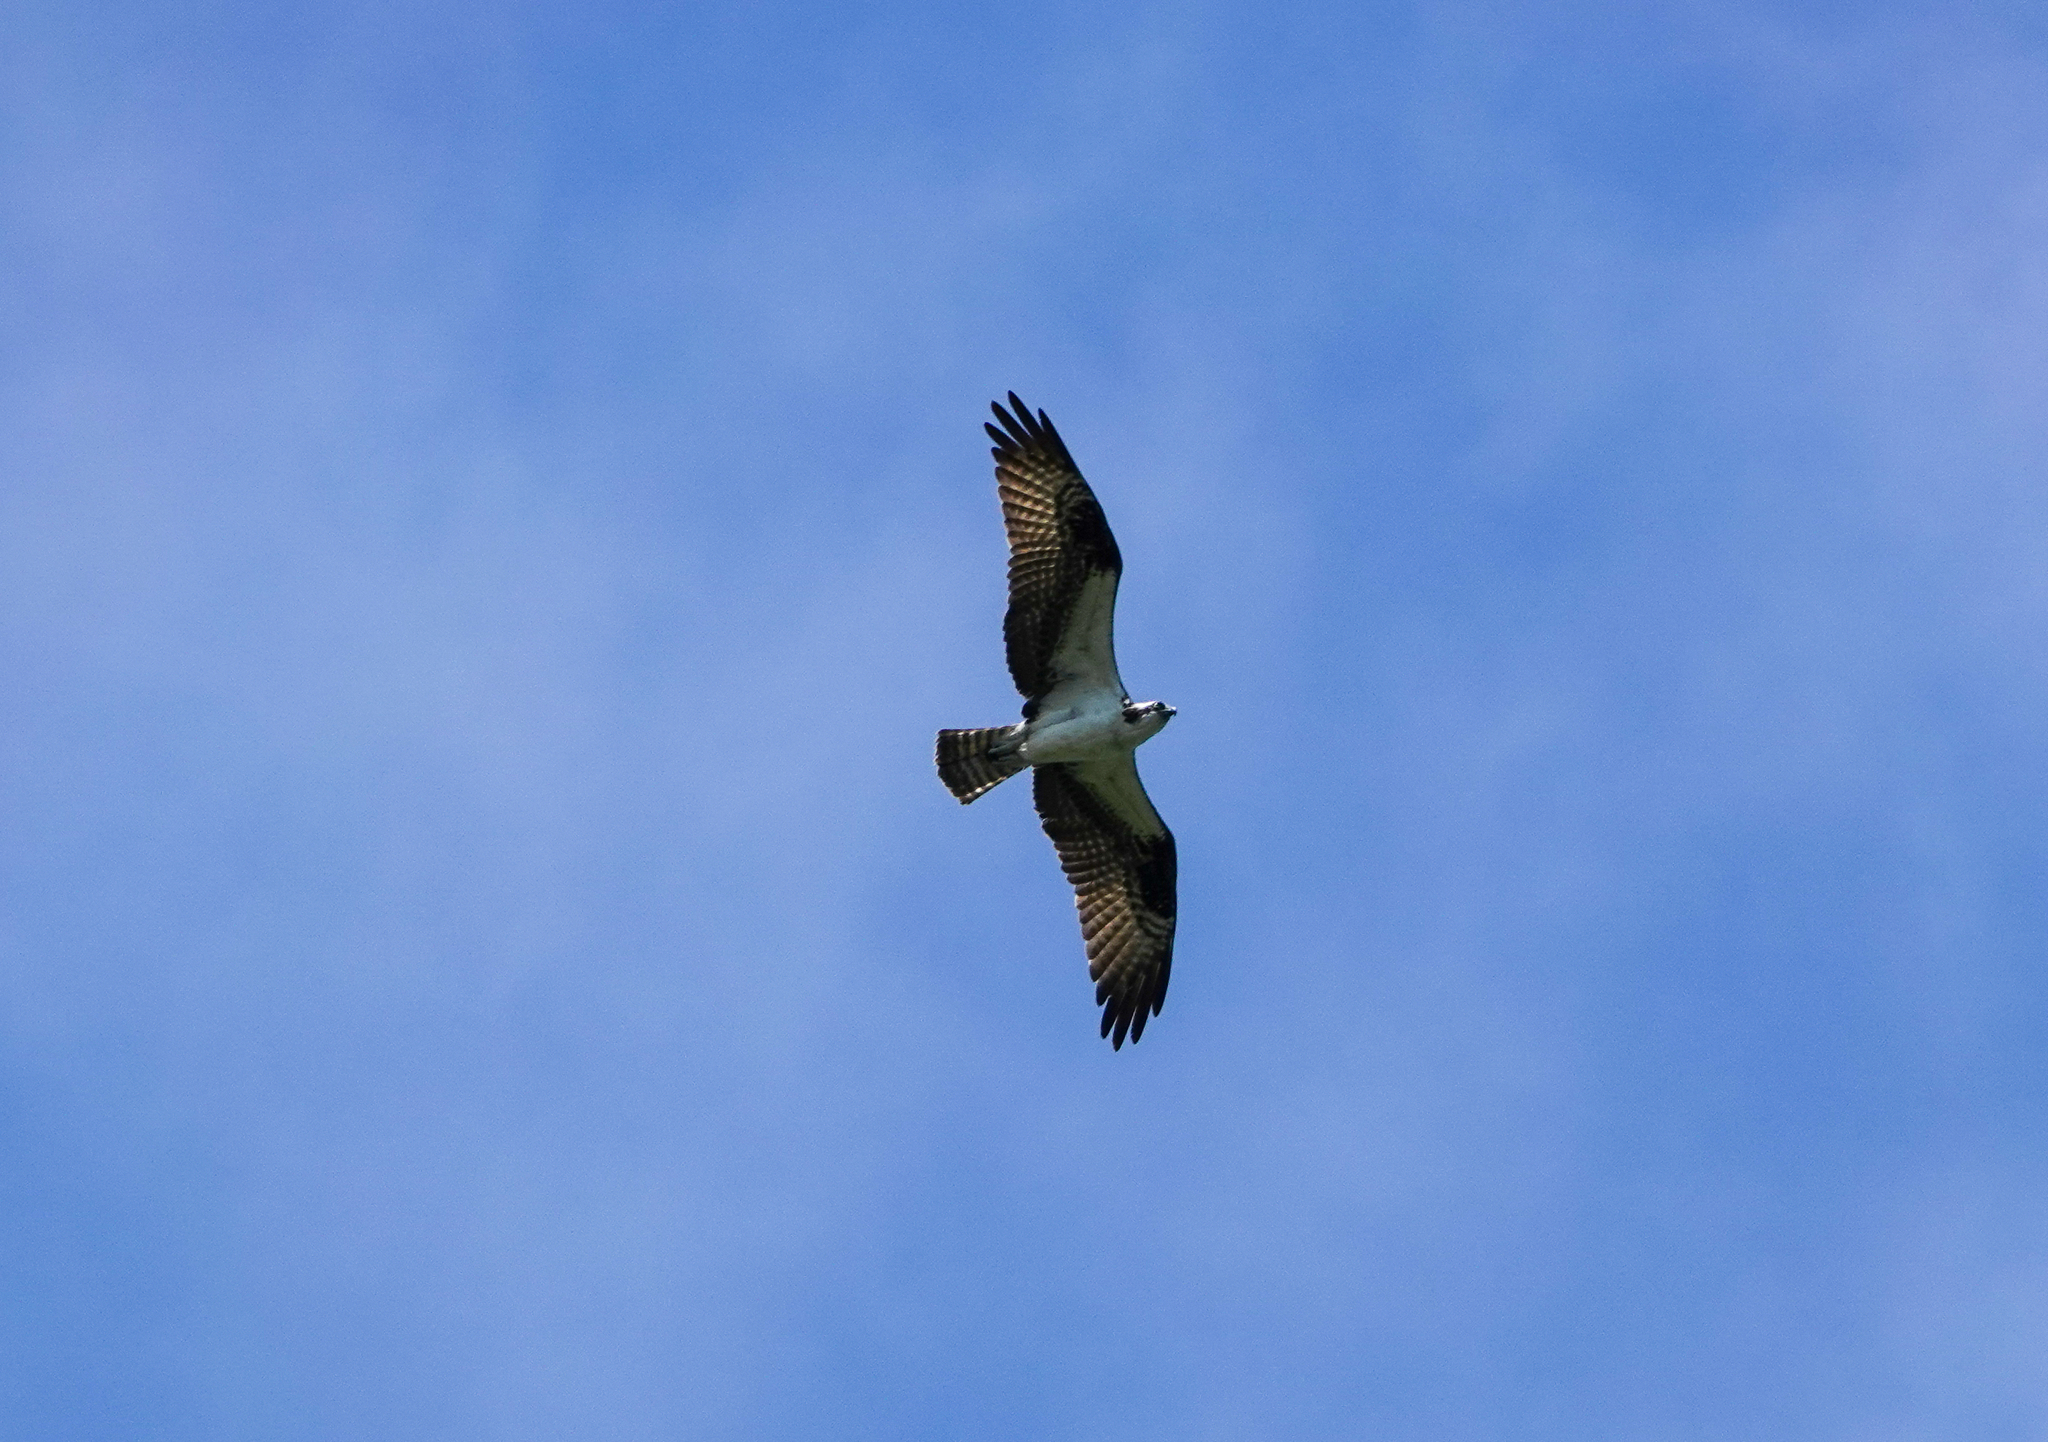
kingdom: Animalia
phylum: Chordata
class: Aves
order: Accipitriformes
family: Pandionidae
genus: Pandion
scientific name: Pandion haliaetus
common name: Osprey
